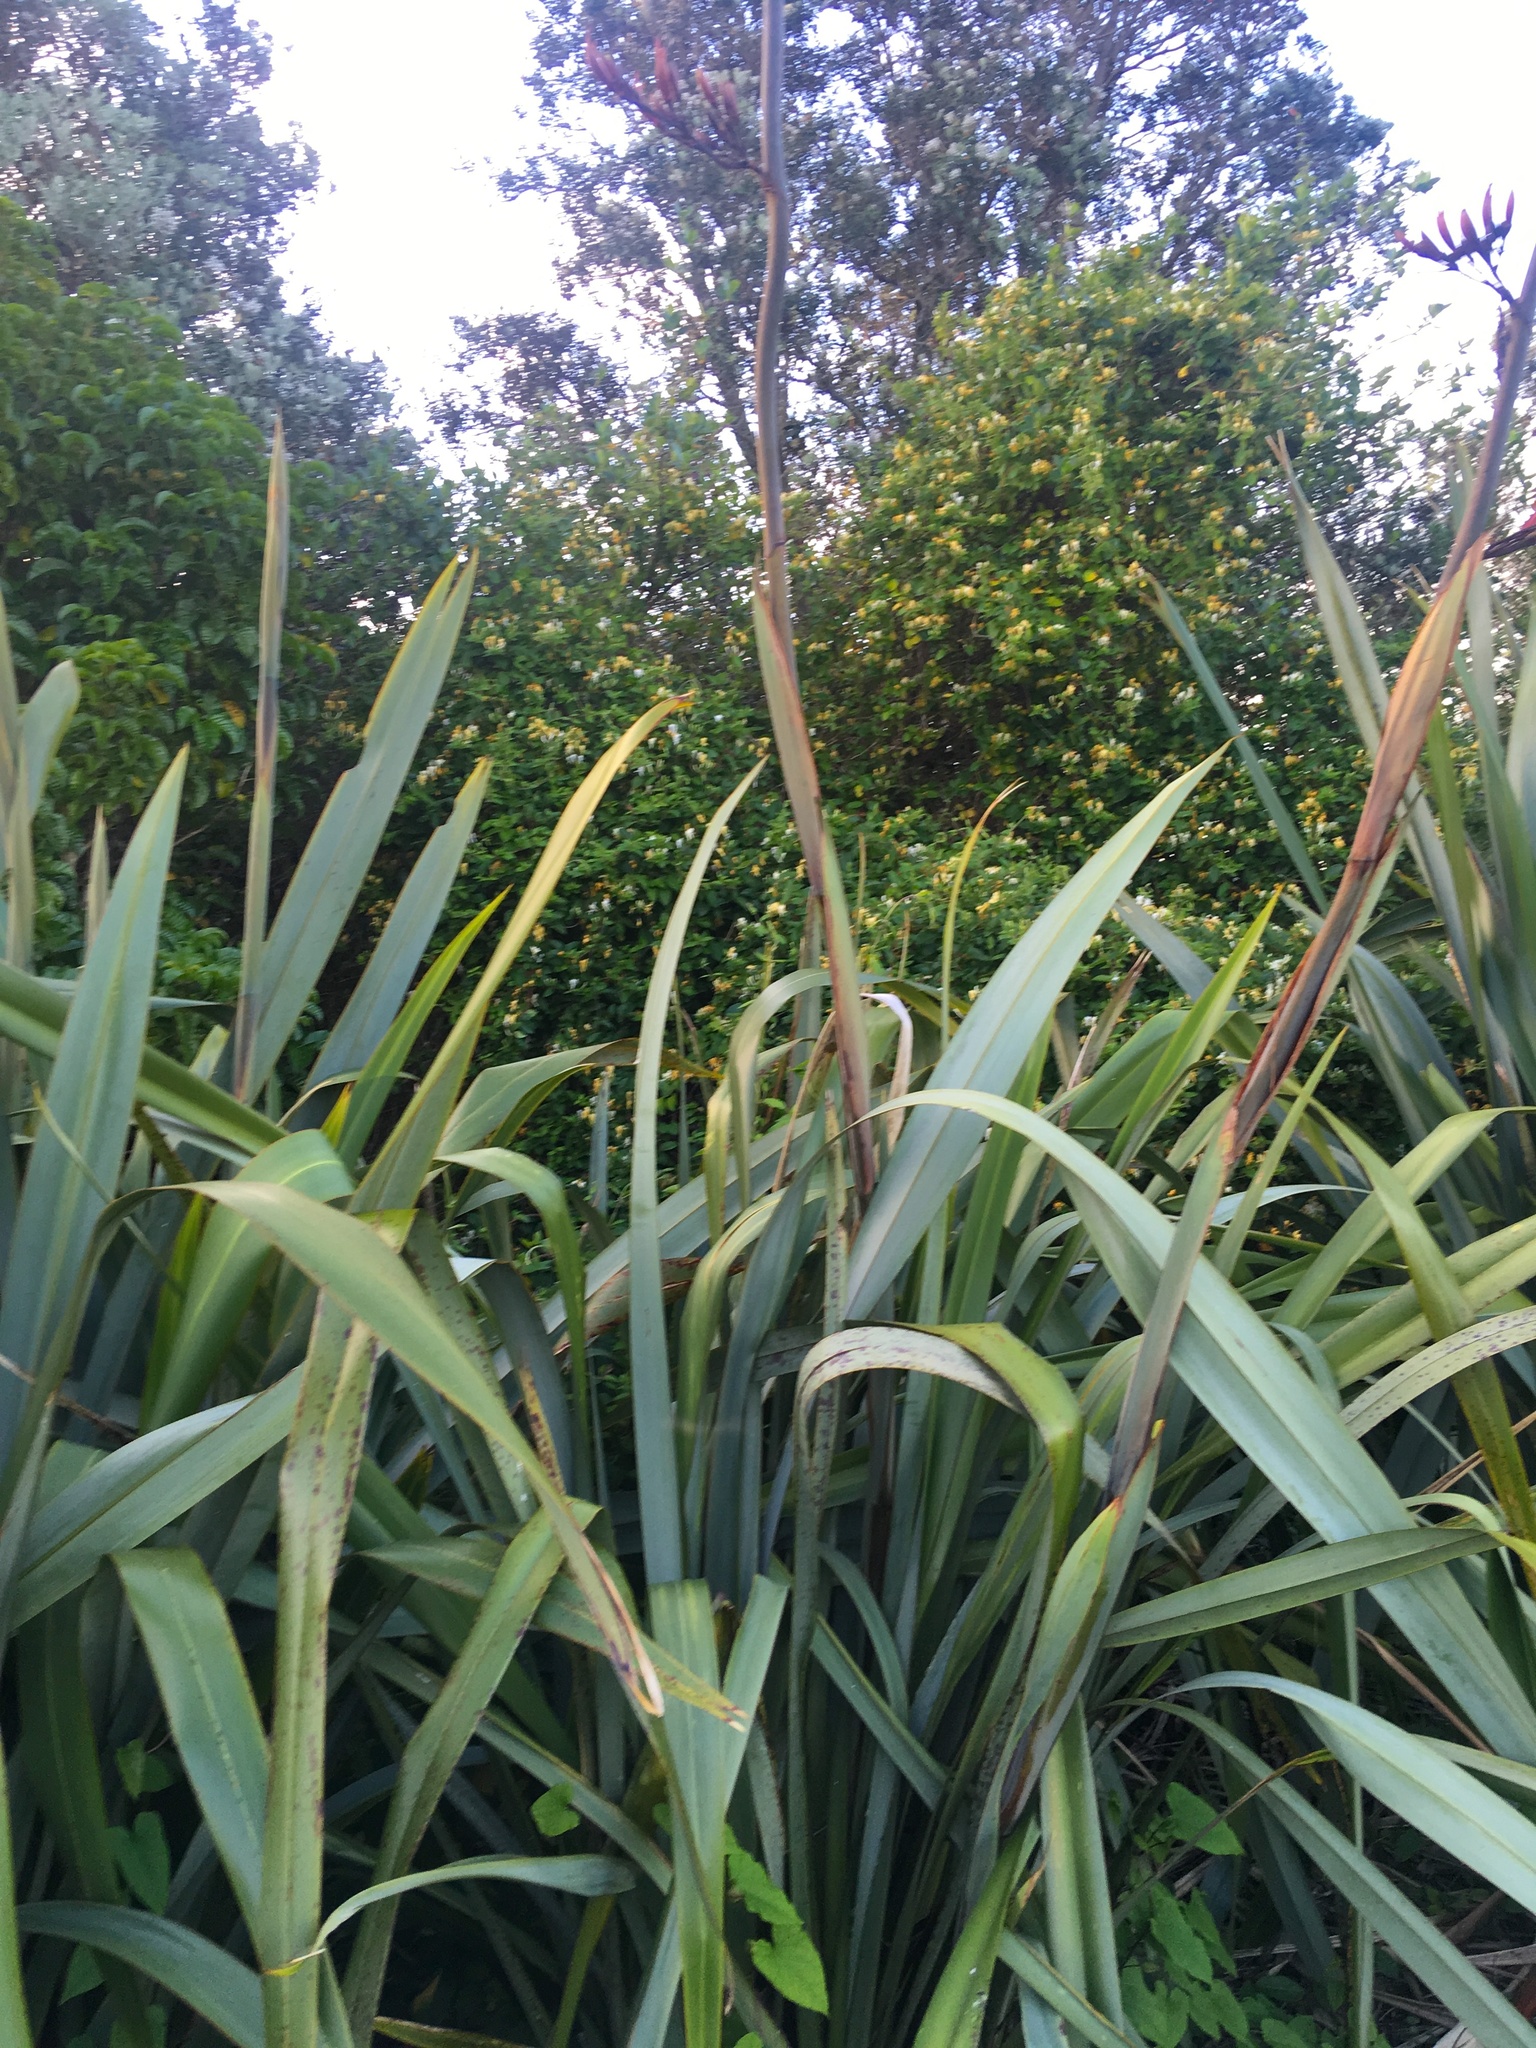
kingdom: Plantae
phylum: Tracheophyta
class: Magnoliopsida
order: Dipsacales
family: Caprifoliaceae
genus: Lonicera
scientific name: Lonicera japonica
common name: Japanese honeysuckle
